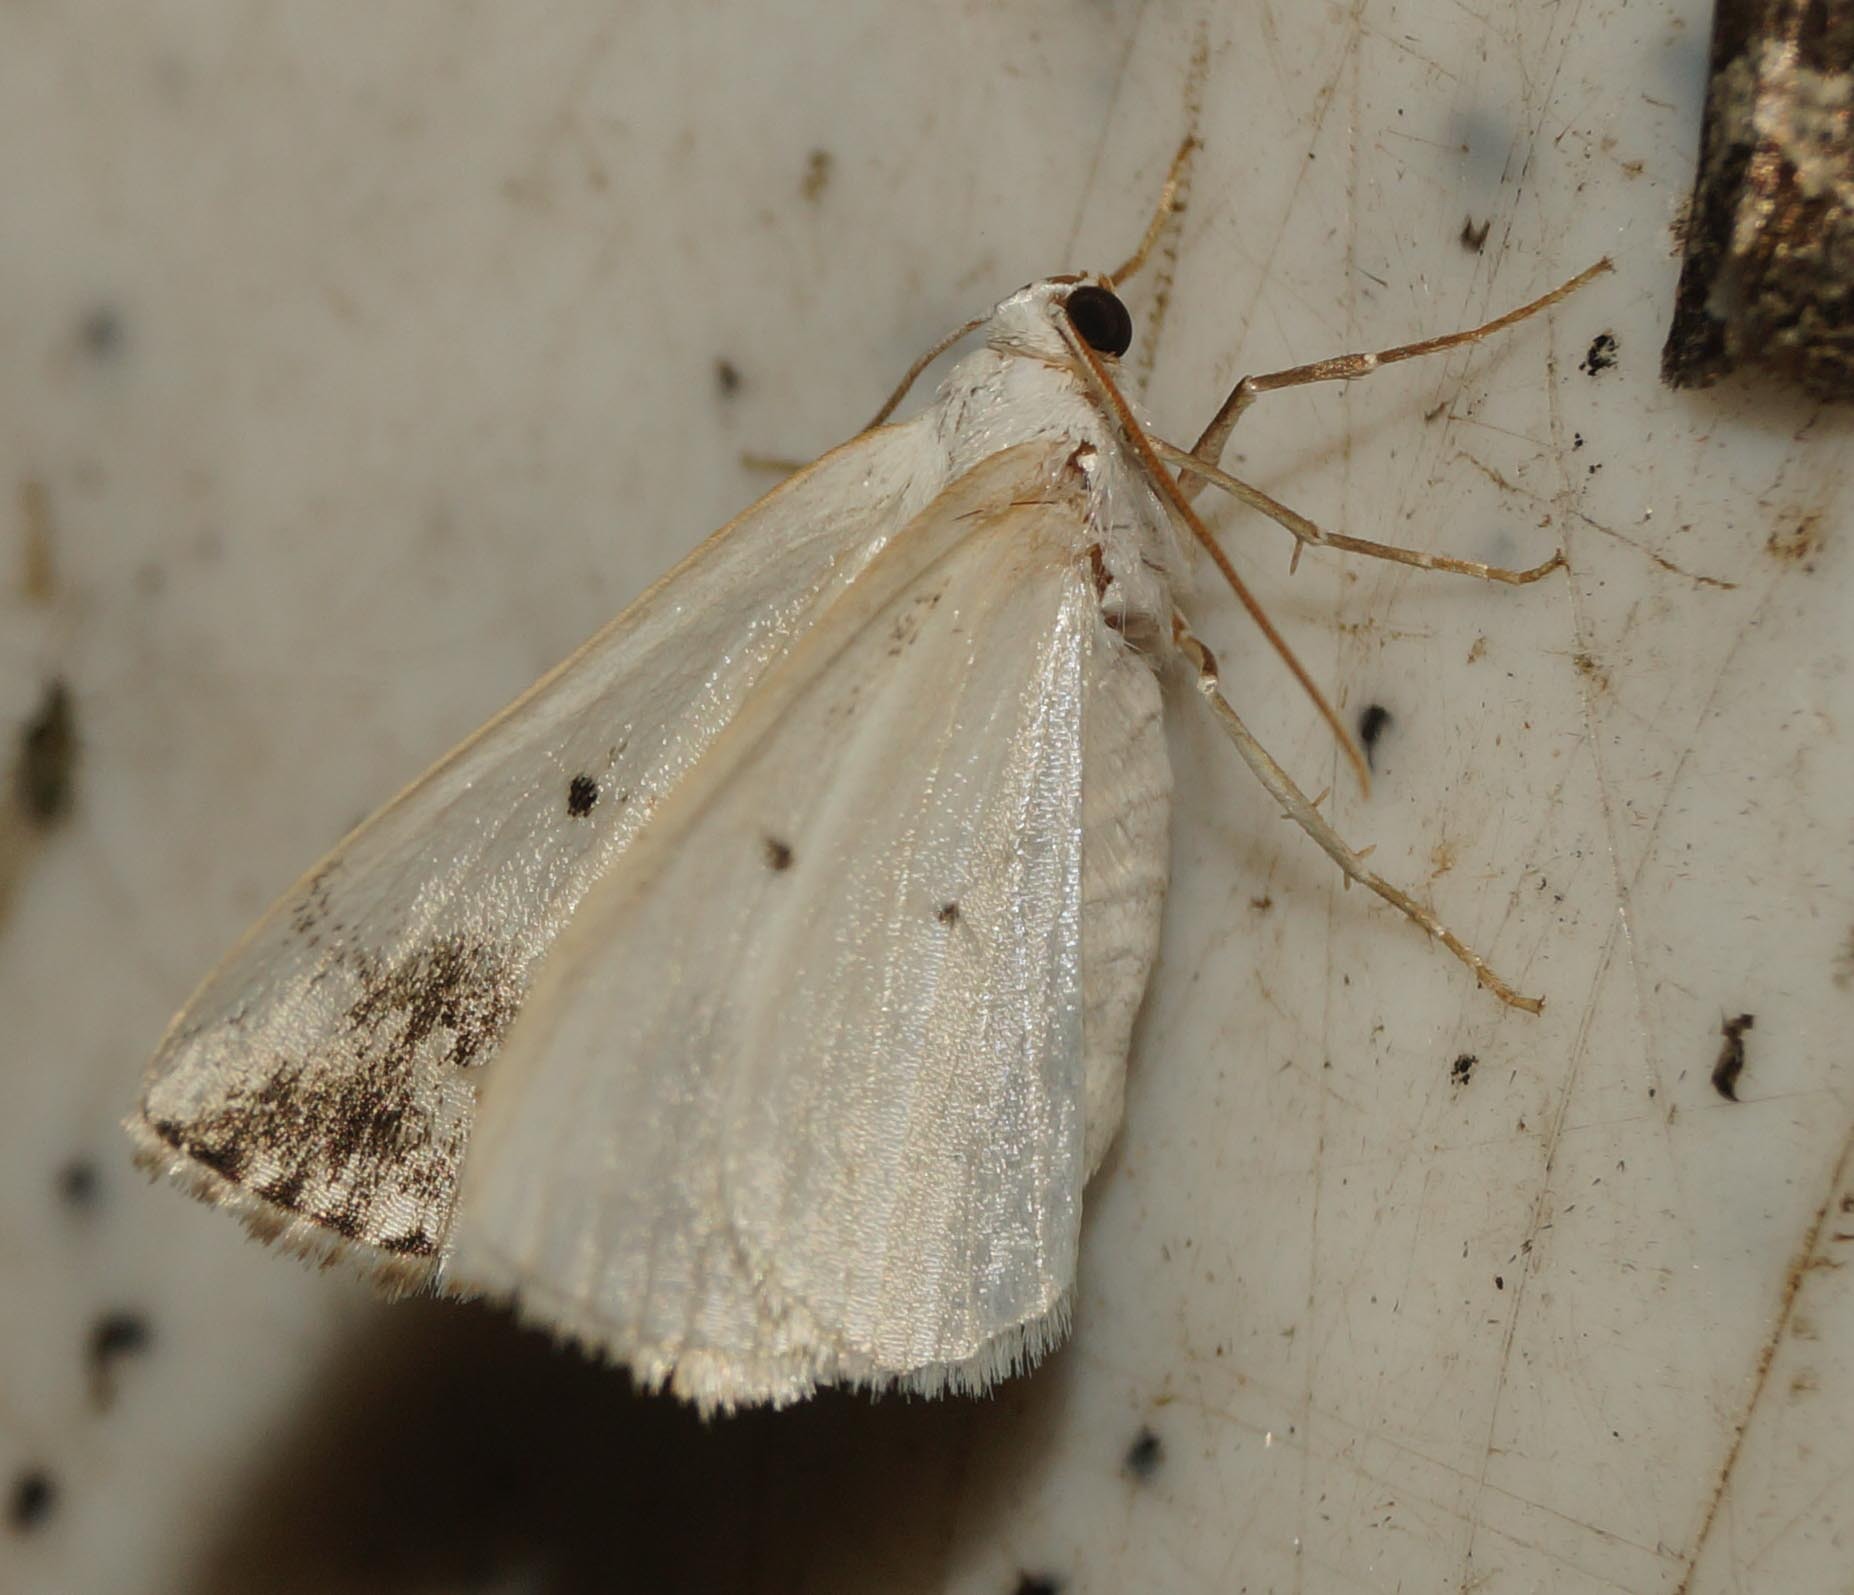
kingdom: Animalia
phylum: Arthropoda
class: Insecta
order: Lepidoptera
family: Geometridae
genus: Lomographa
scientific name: Lomographa temerata
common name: Clouded silver
